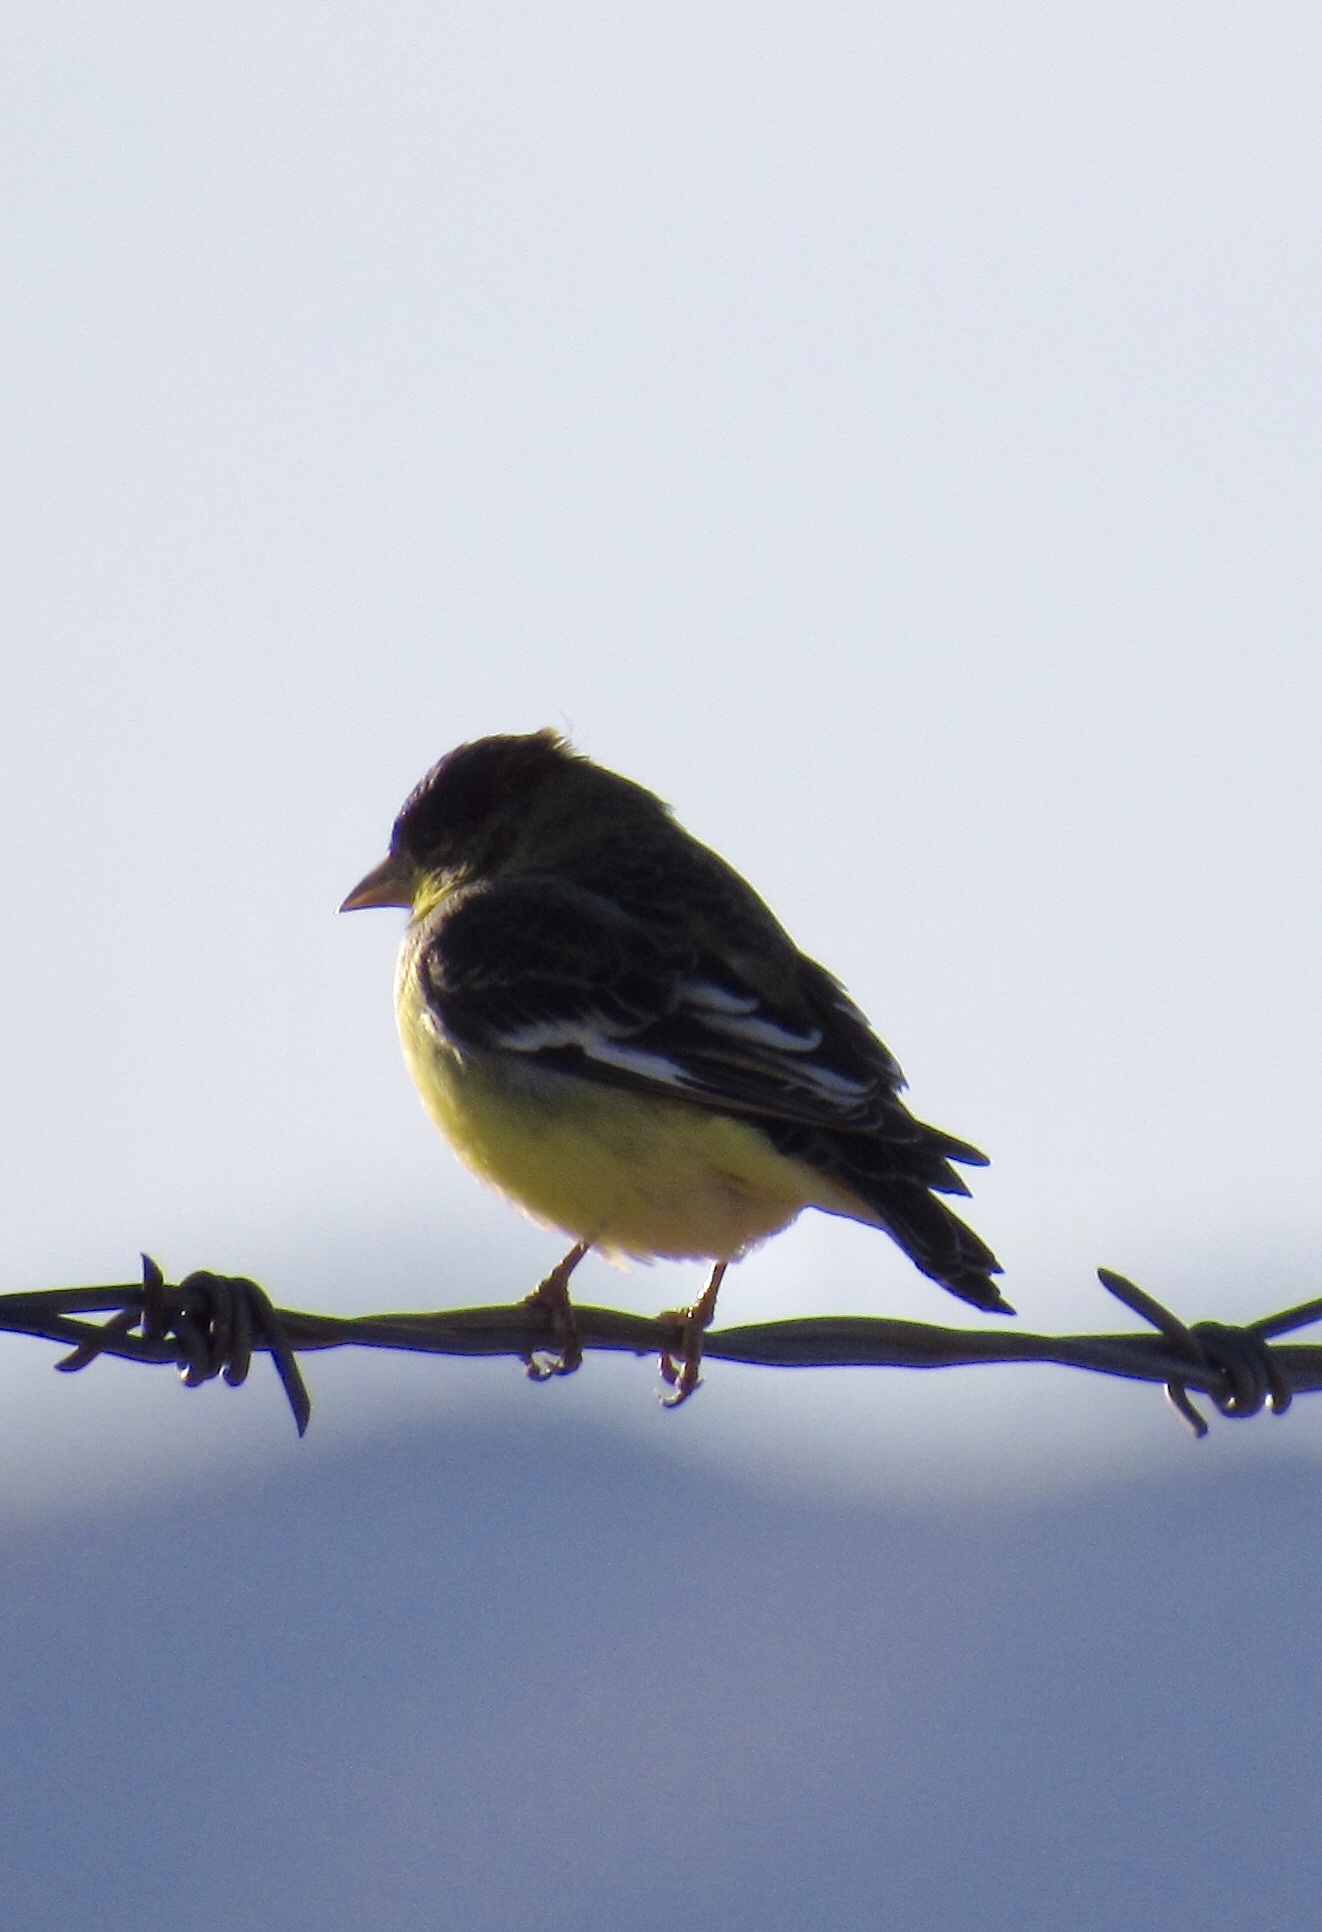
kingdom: Animalia
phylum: Chordata
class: Aves
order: Passeriformes
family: Fringillidae
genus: Spinus
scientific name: Spinus psaltria
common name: Lesser goldfinch
